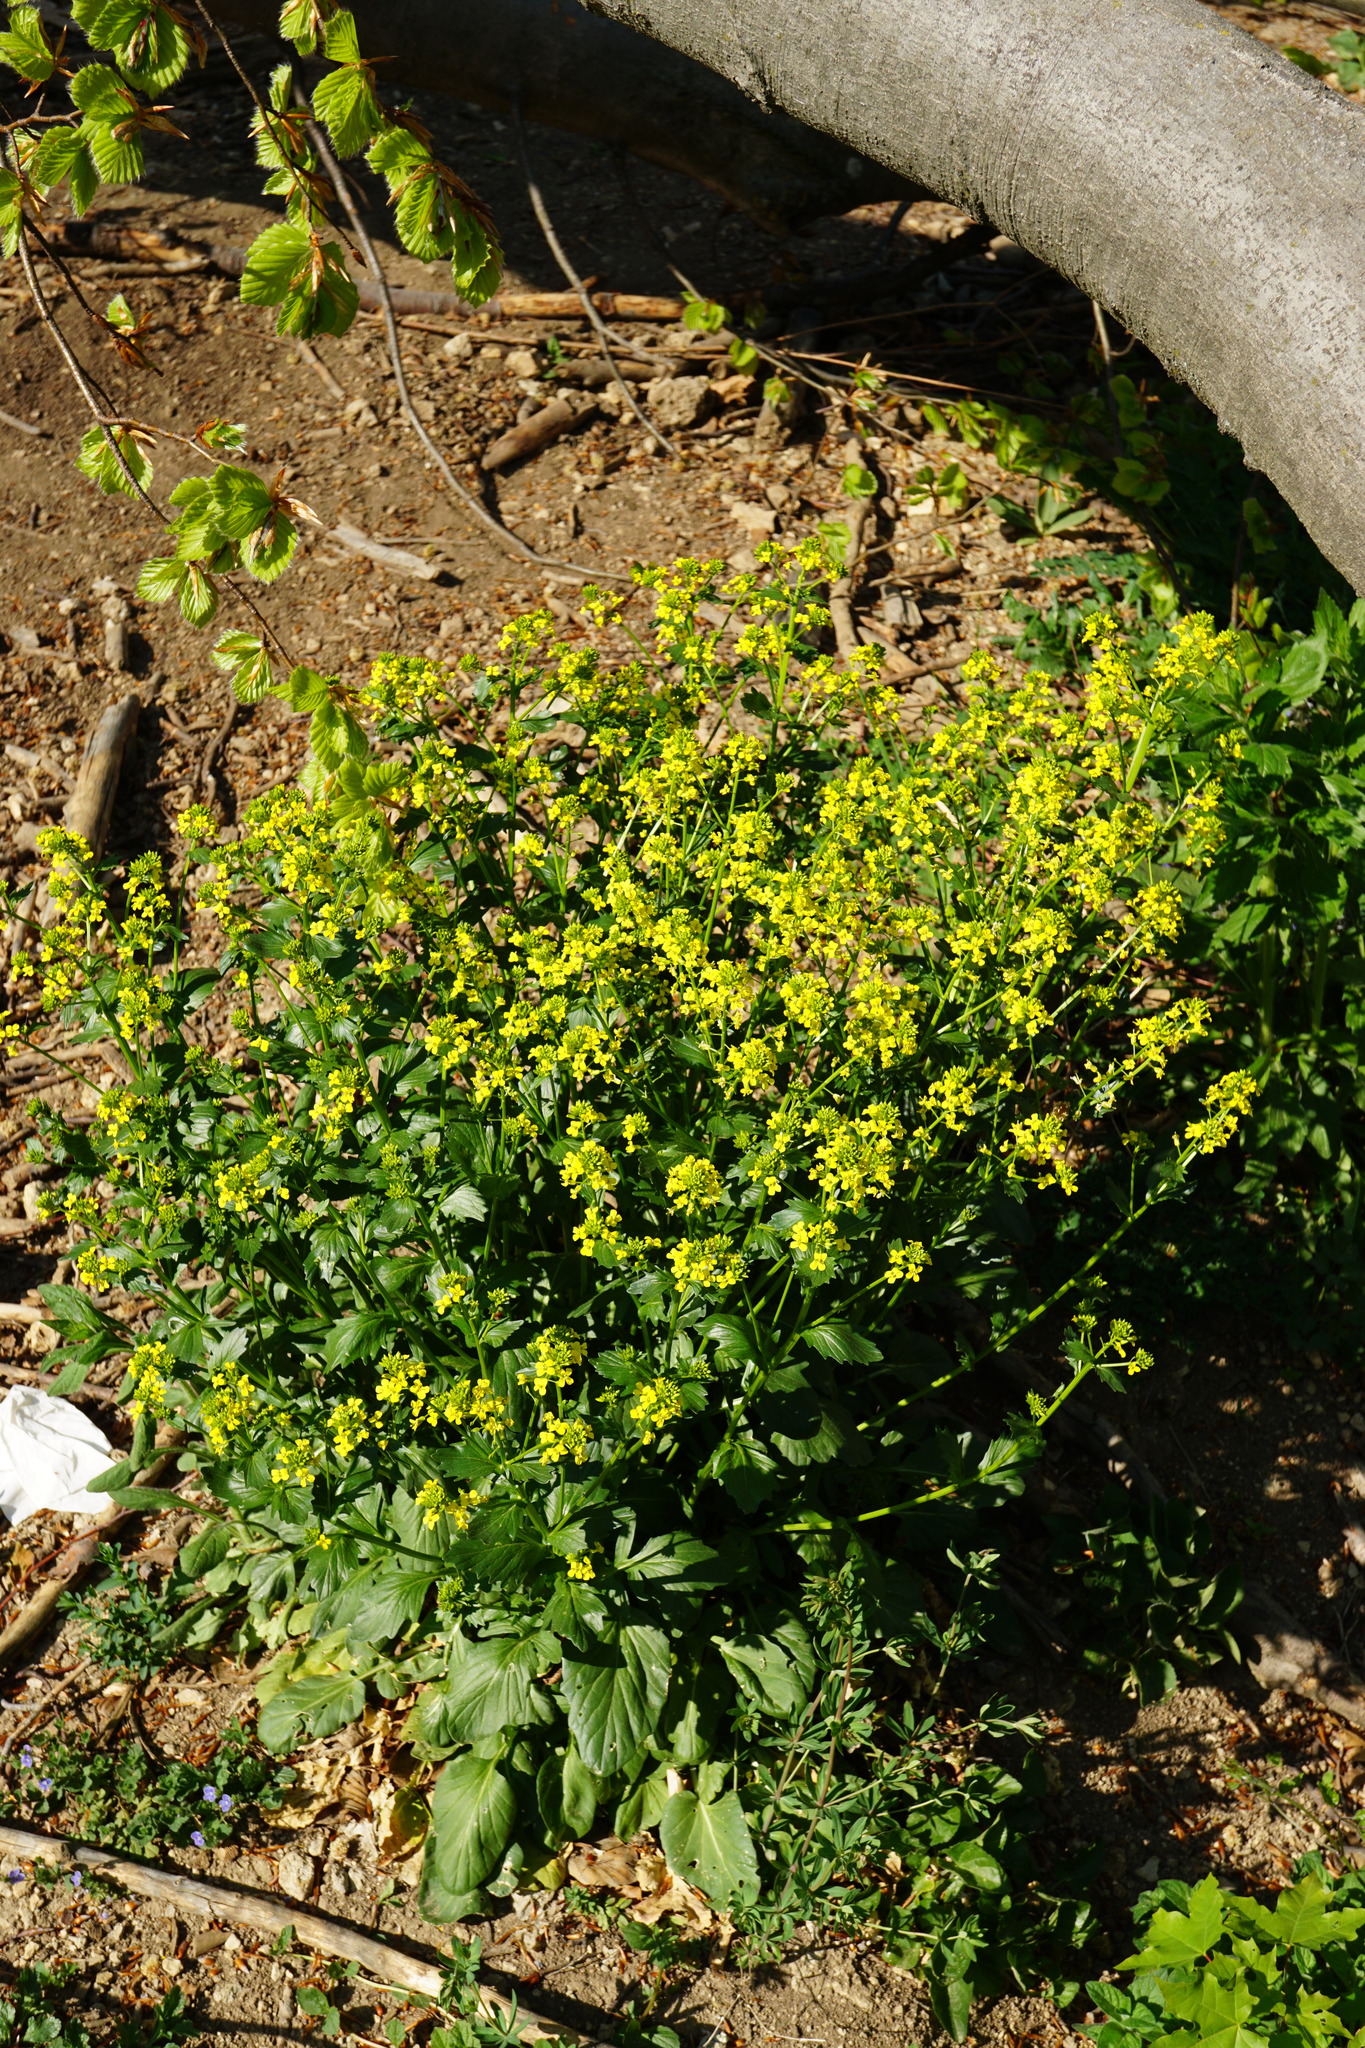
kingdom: Plantae
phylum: Tracheophyta
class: Magnoliopsida
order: Brassicales
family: Brassicaceae
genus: Barbarea
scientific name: Barbarea vulgaris
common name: Cressy-greens
